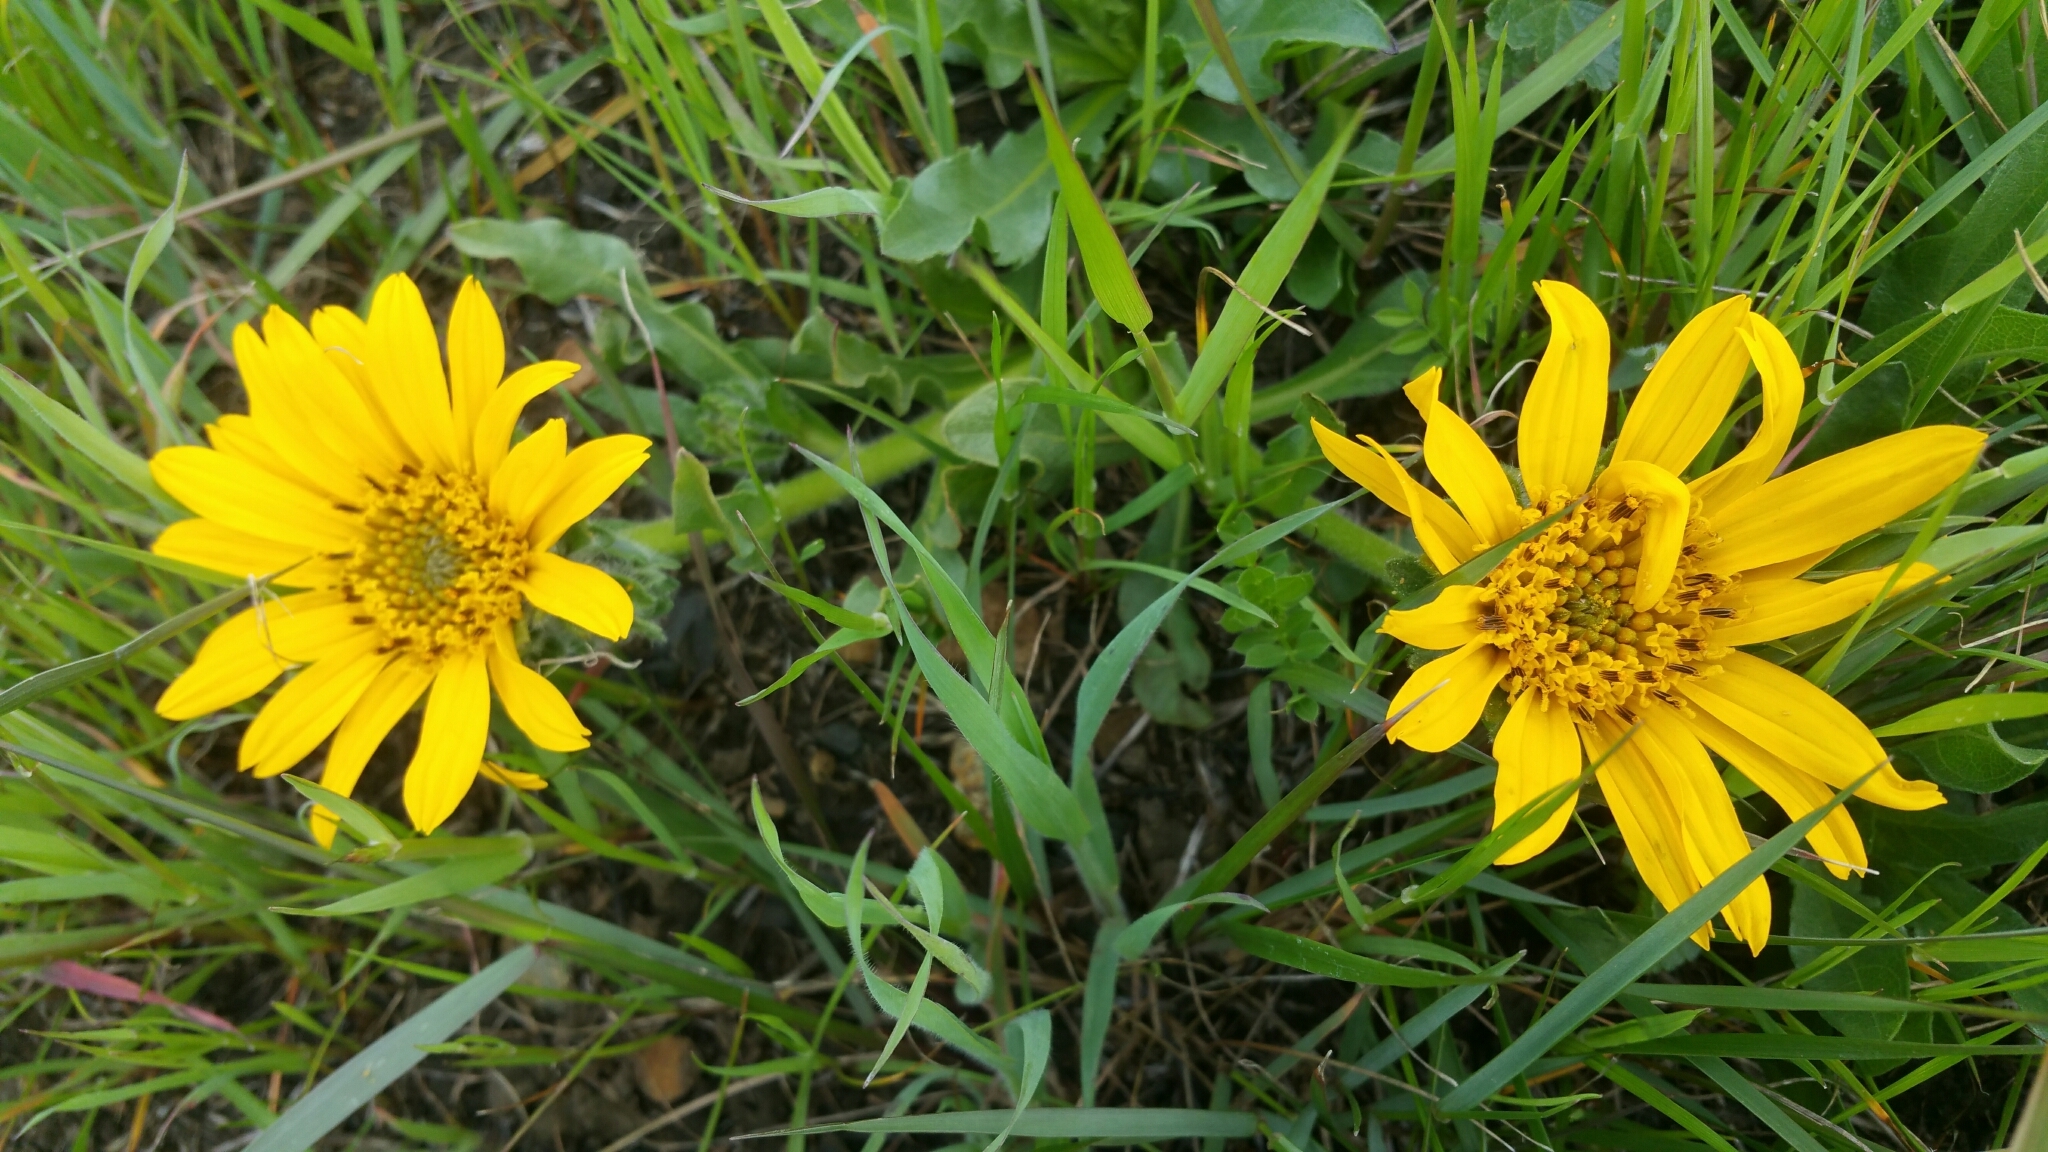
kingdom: Plantae
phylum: Tracheophyta
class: Magnoliopsida
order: Asterales
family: Asteraceae
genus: Wyethia
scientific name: Wyethia angustifolia
